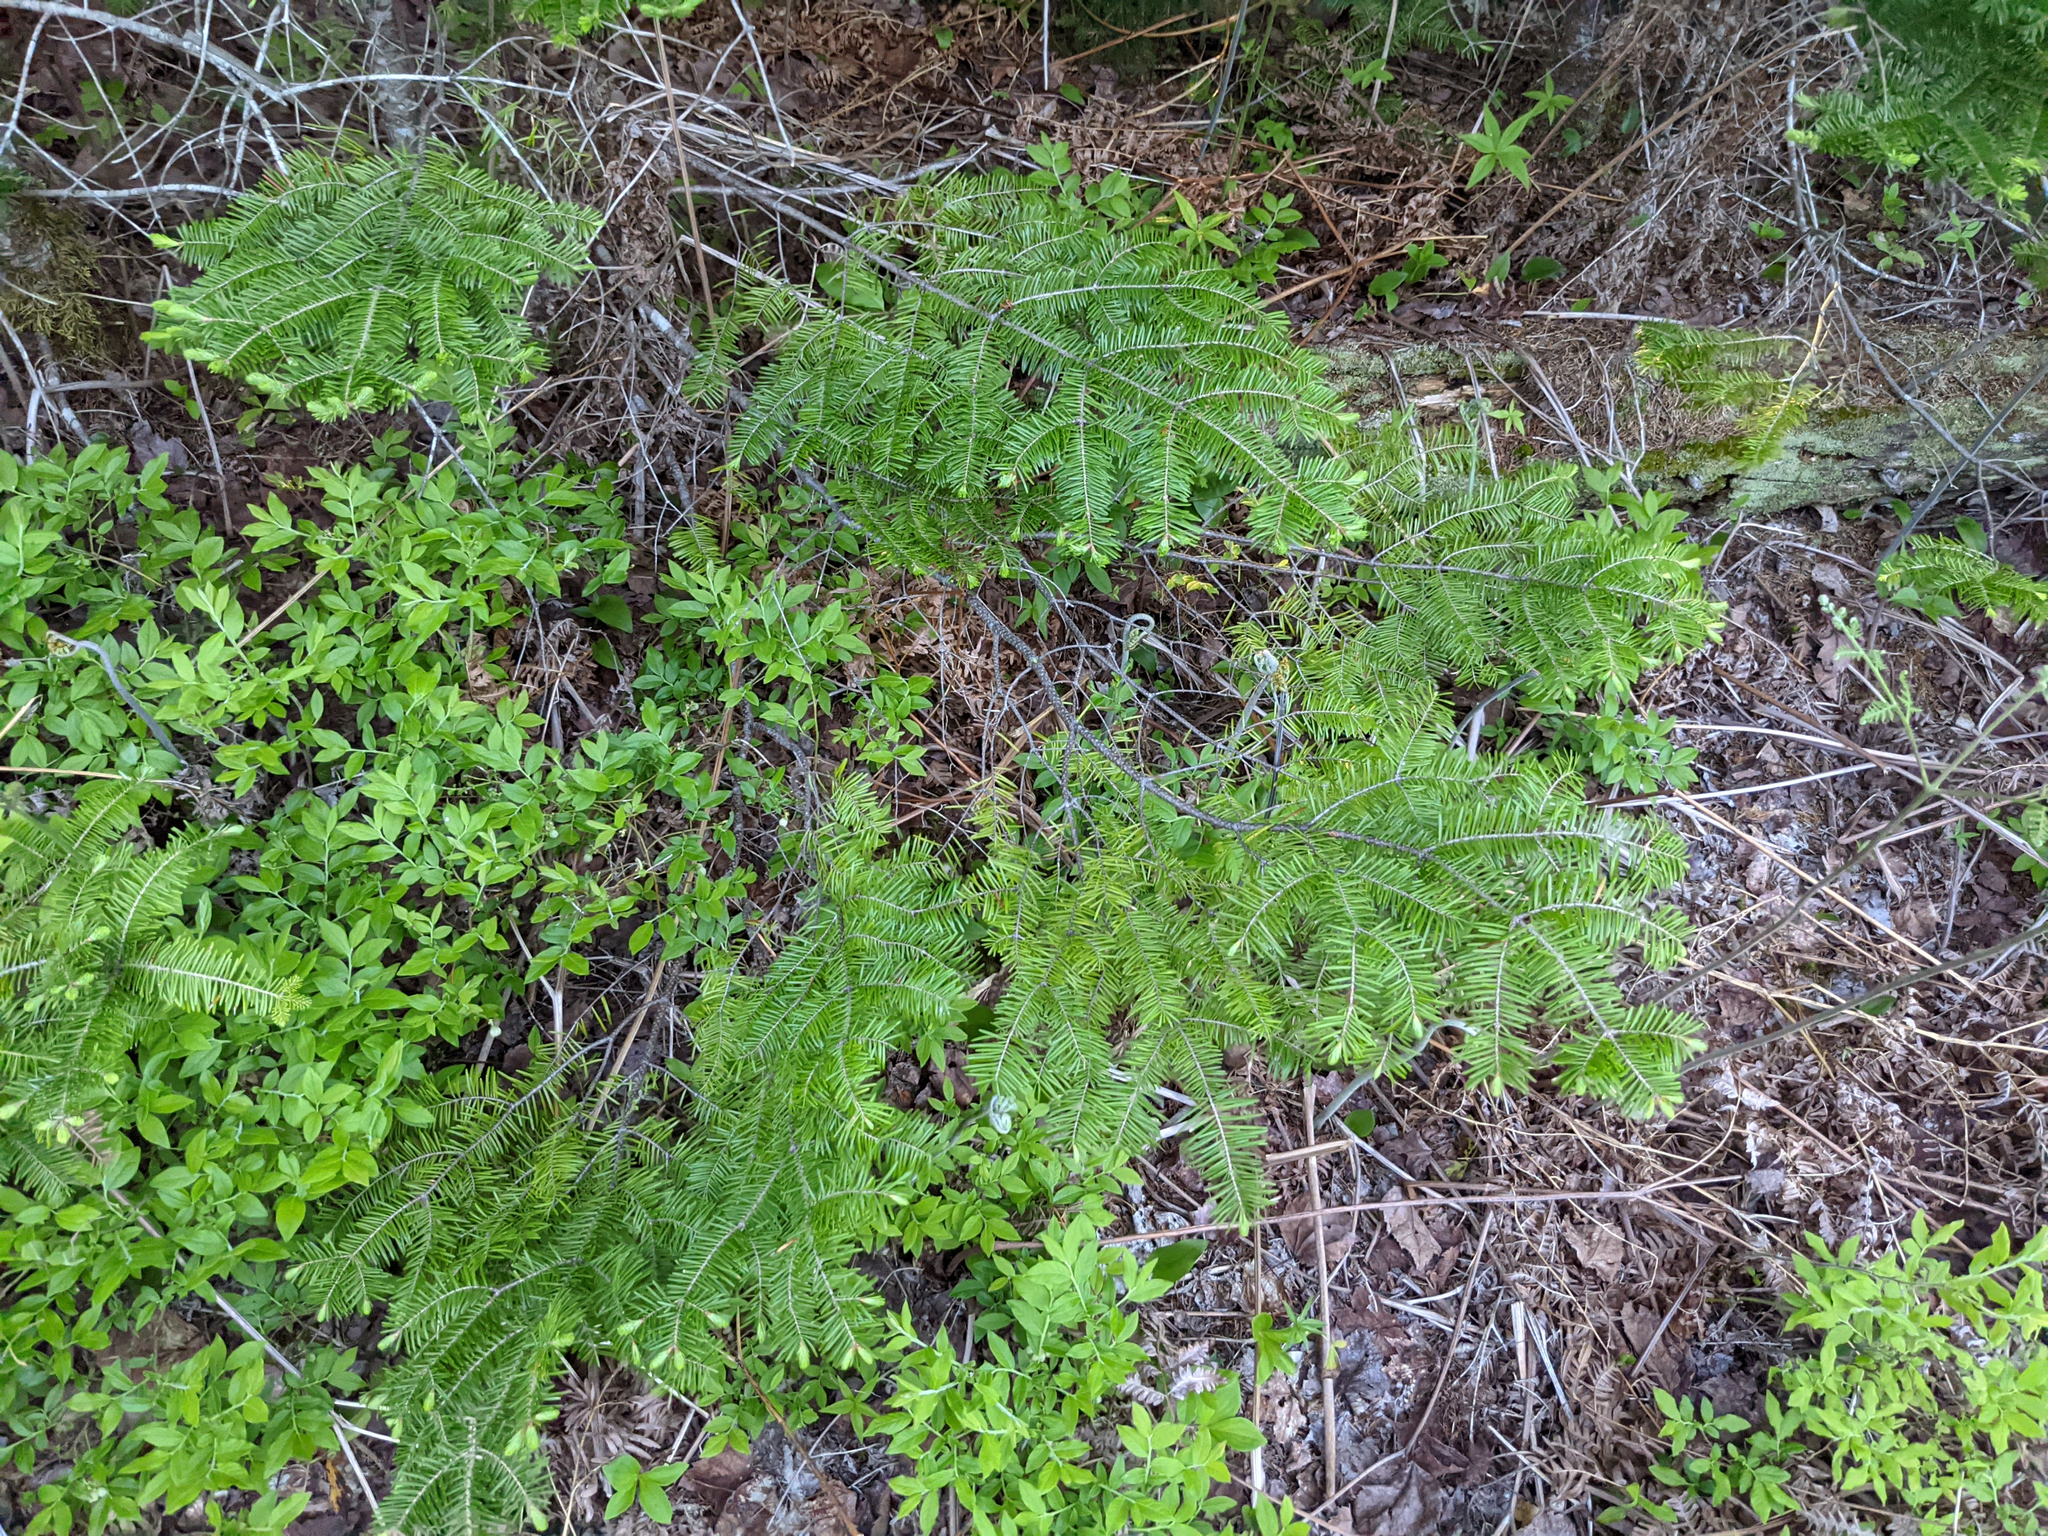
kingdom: Plantae
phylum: Tracheophyta
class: Pinopsida
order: Pinales
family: Pinaceae
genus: Abies
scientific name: Abies balsamea
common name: Balsam fir
